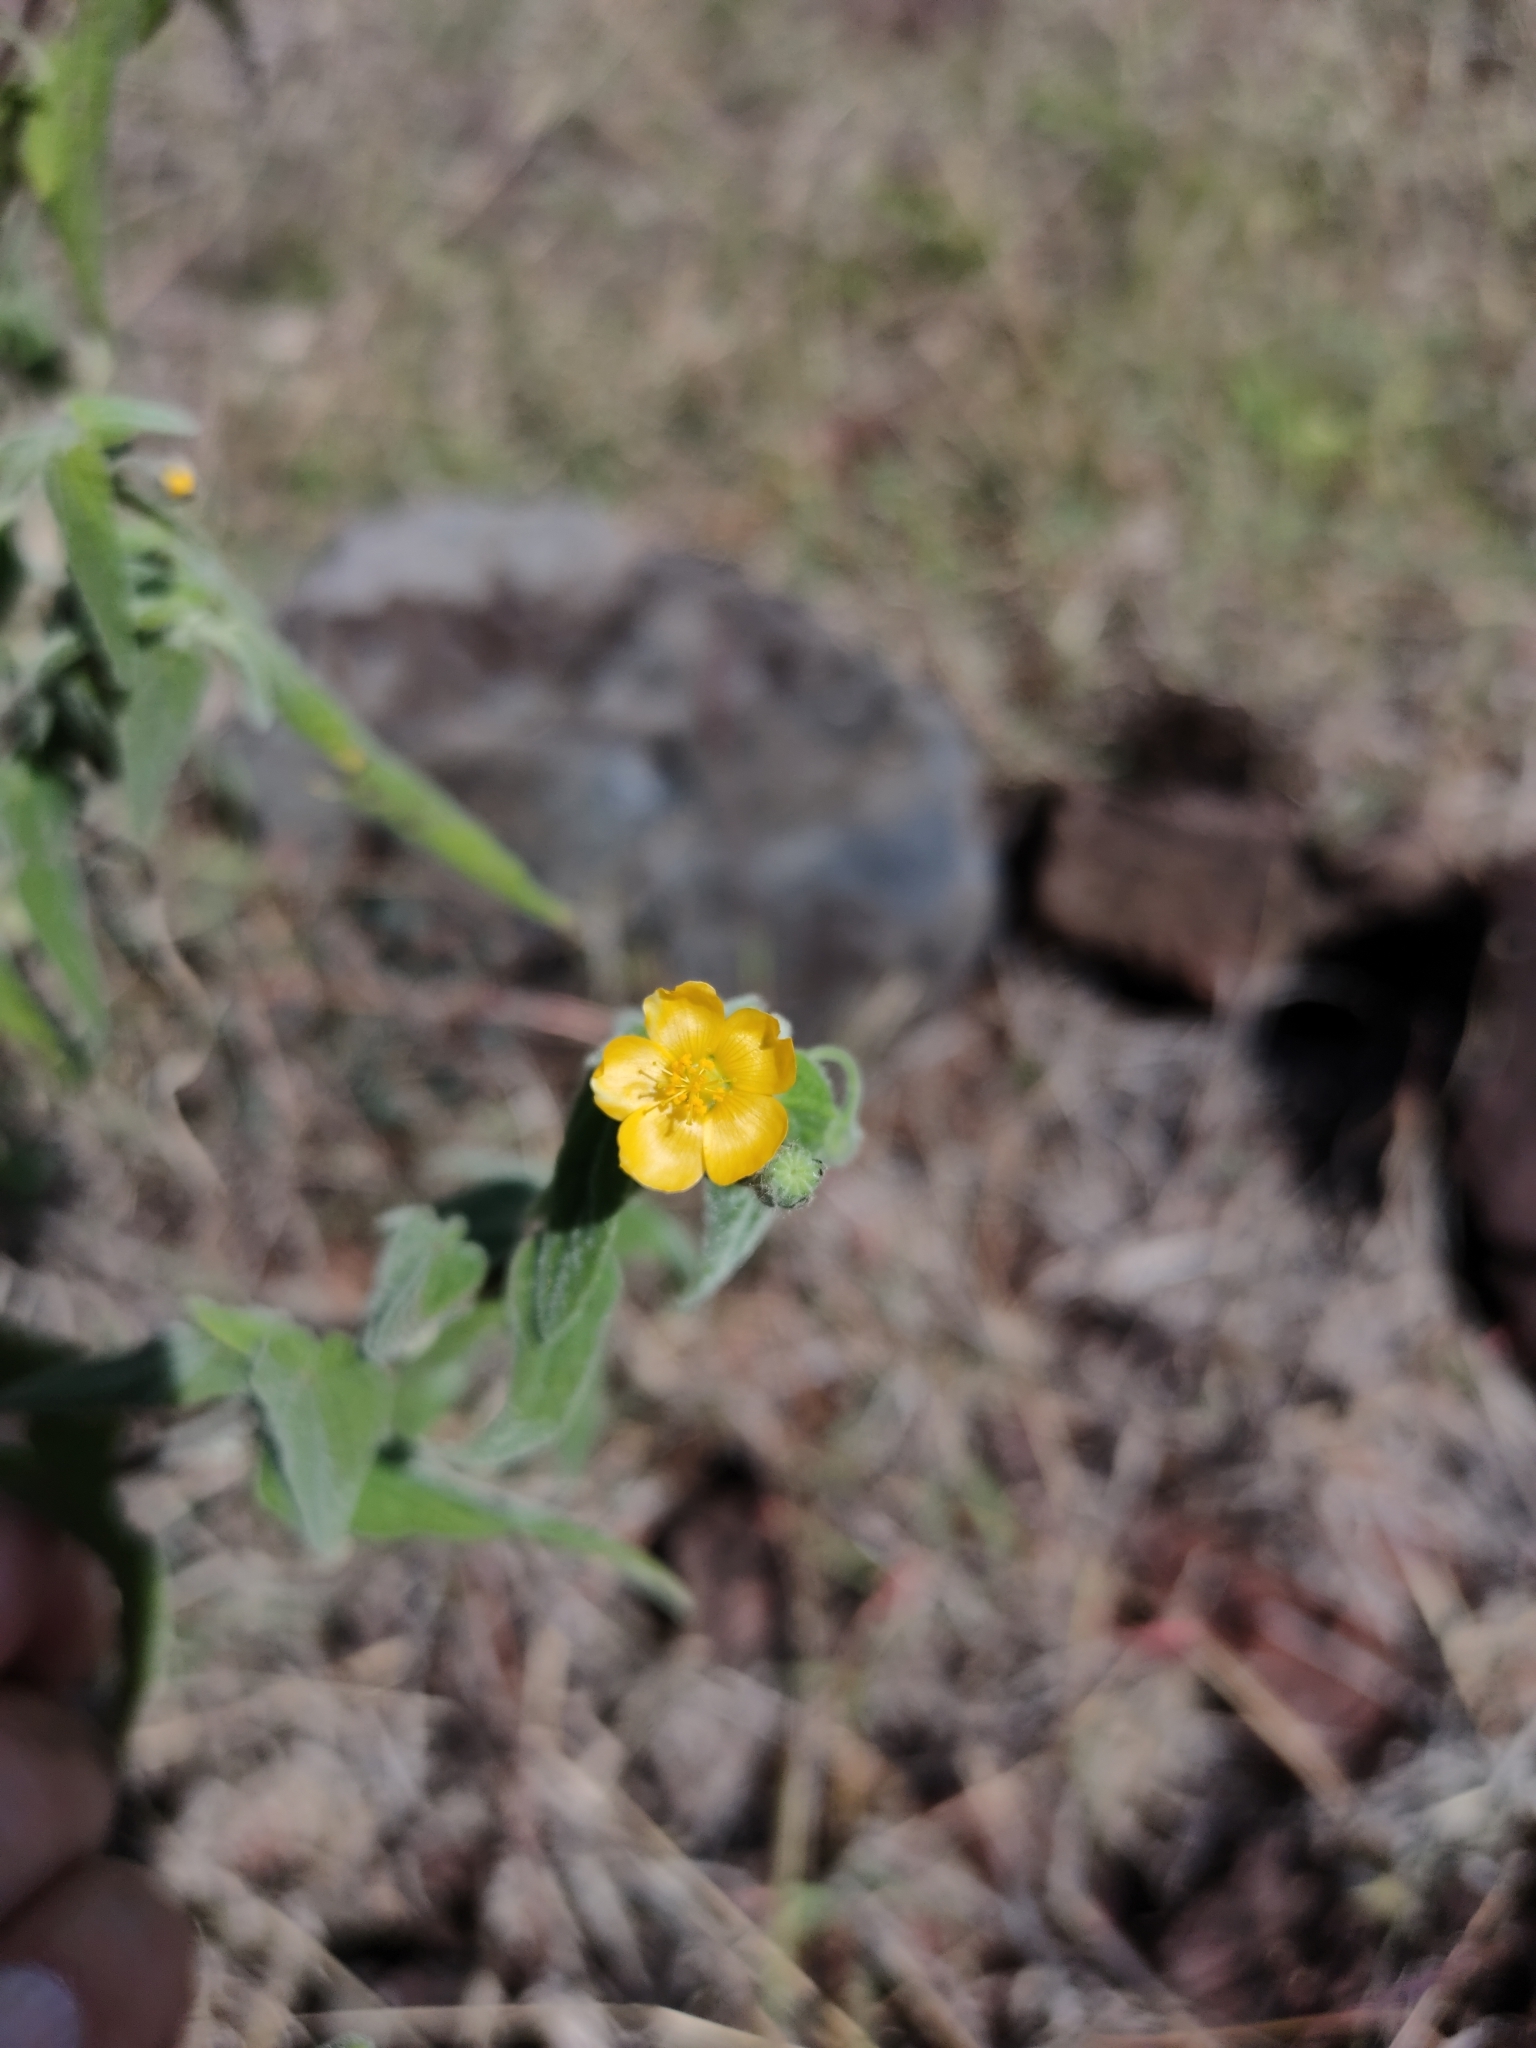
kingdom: Plantae
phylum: Tracheophyta
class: Magnoliopsida
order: Malvales
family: Malvaceae
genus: Abutilon
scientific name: Abutilon oxycarpum
